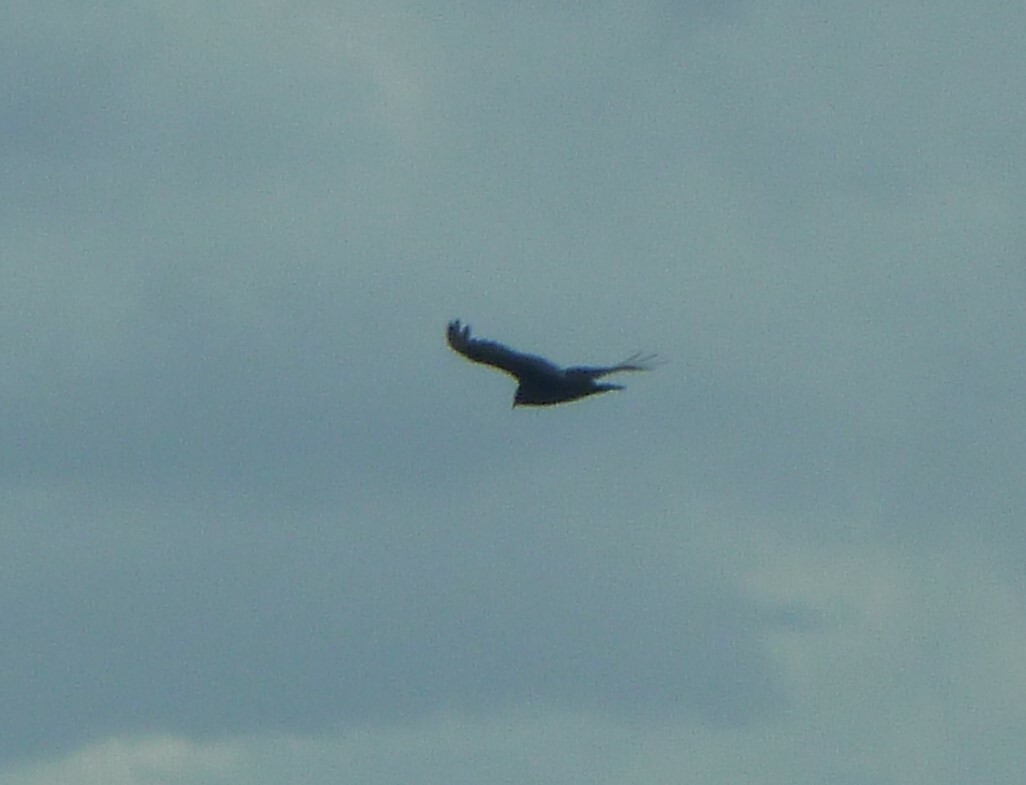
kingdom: Animalia
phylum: Chordata
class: Aves
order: Accipitriformes
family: Cathartidae
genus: Cathartes
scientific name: Cathartes aura
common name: Turkey vulture
